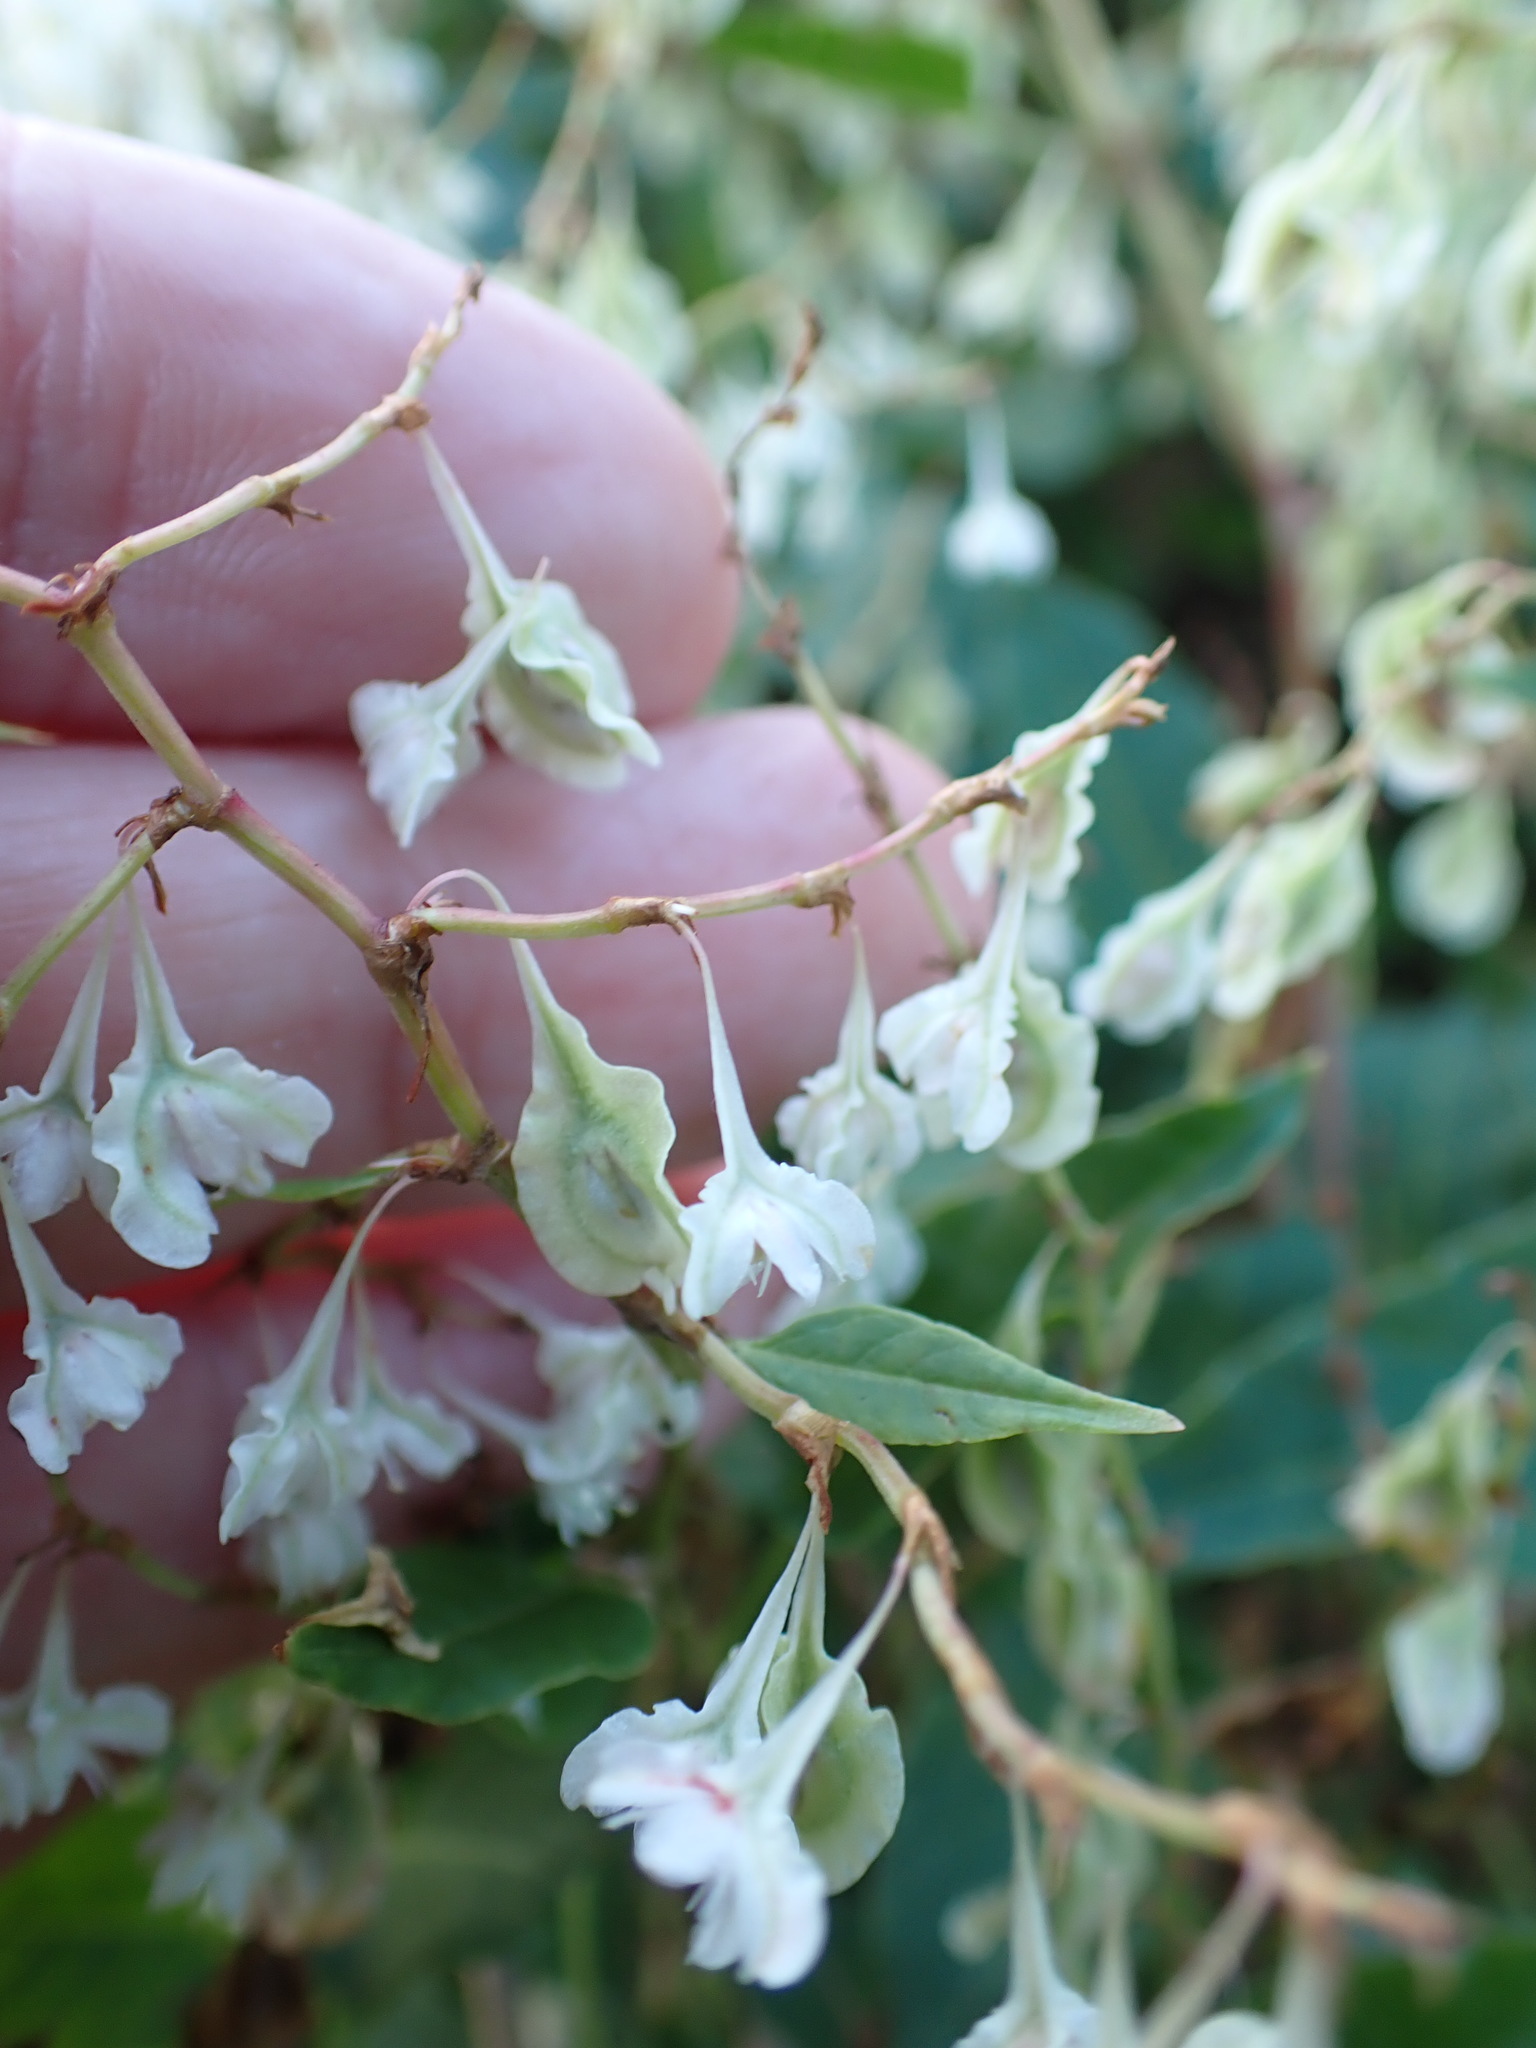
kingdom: Plantae
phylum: Tracheophyta
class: Magnoliopsida
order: Caryophyllales
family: Polygonaceae
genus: Fallopia
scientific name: Fallopia baldschuanica
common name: Russian-vine
